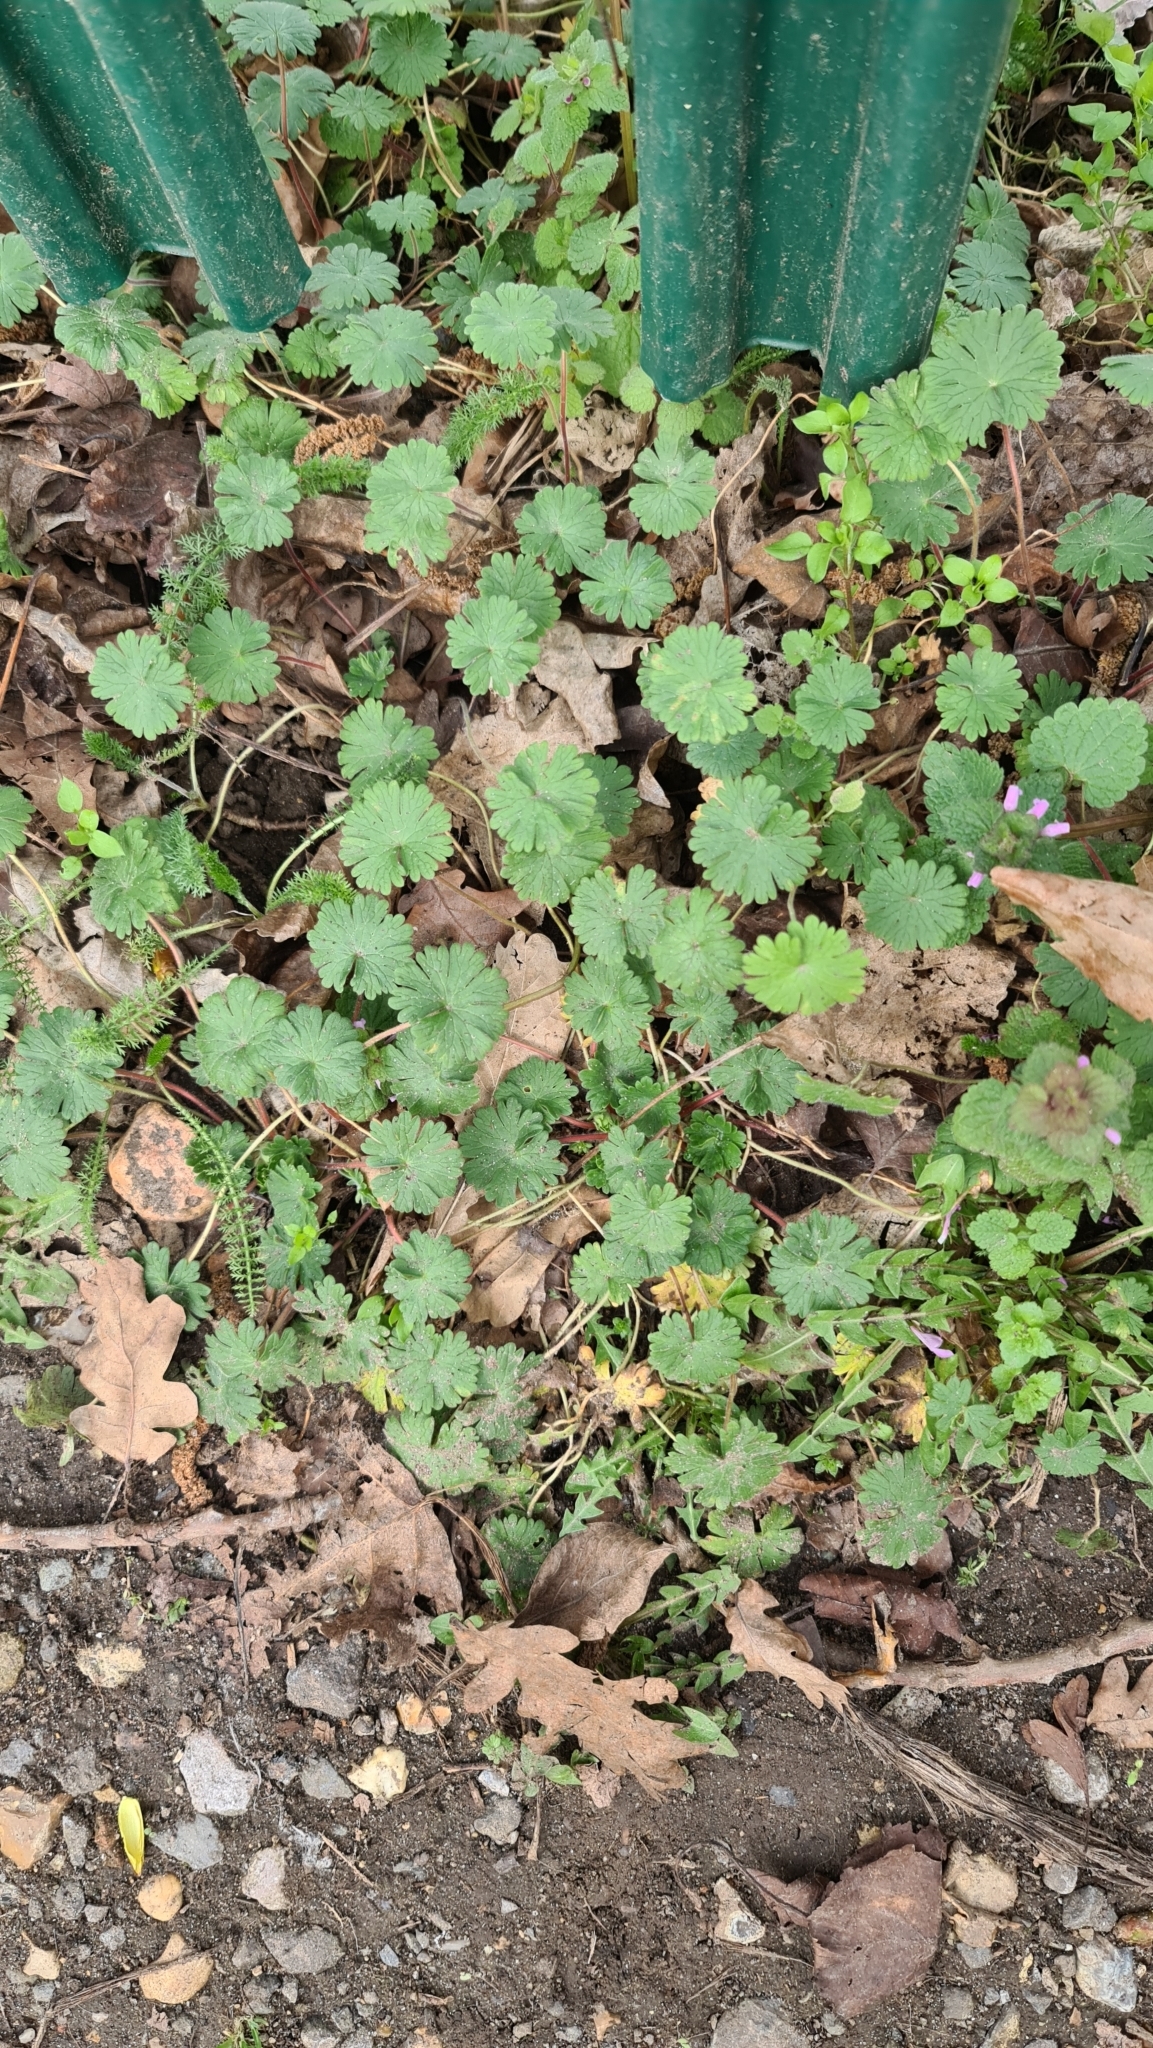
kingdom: Plantae
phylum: Tracheophyta
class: Magnoliopsida
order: Geraniales
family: Geraniaceae
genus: Geranium
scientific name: Geranium molle
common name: Dove's-foot crane's-bill
